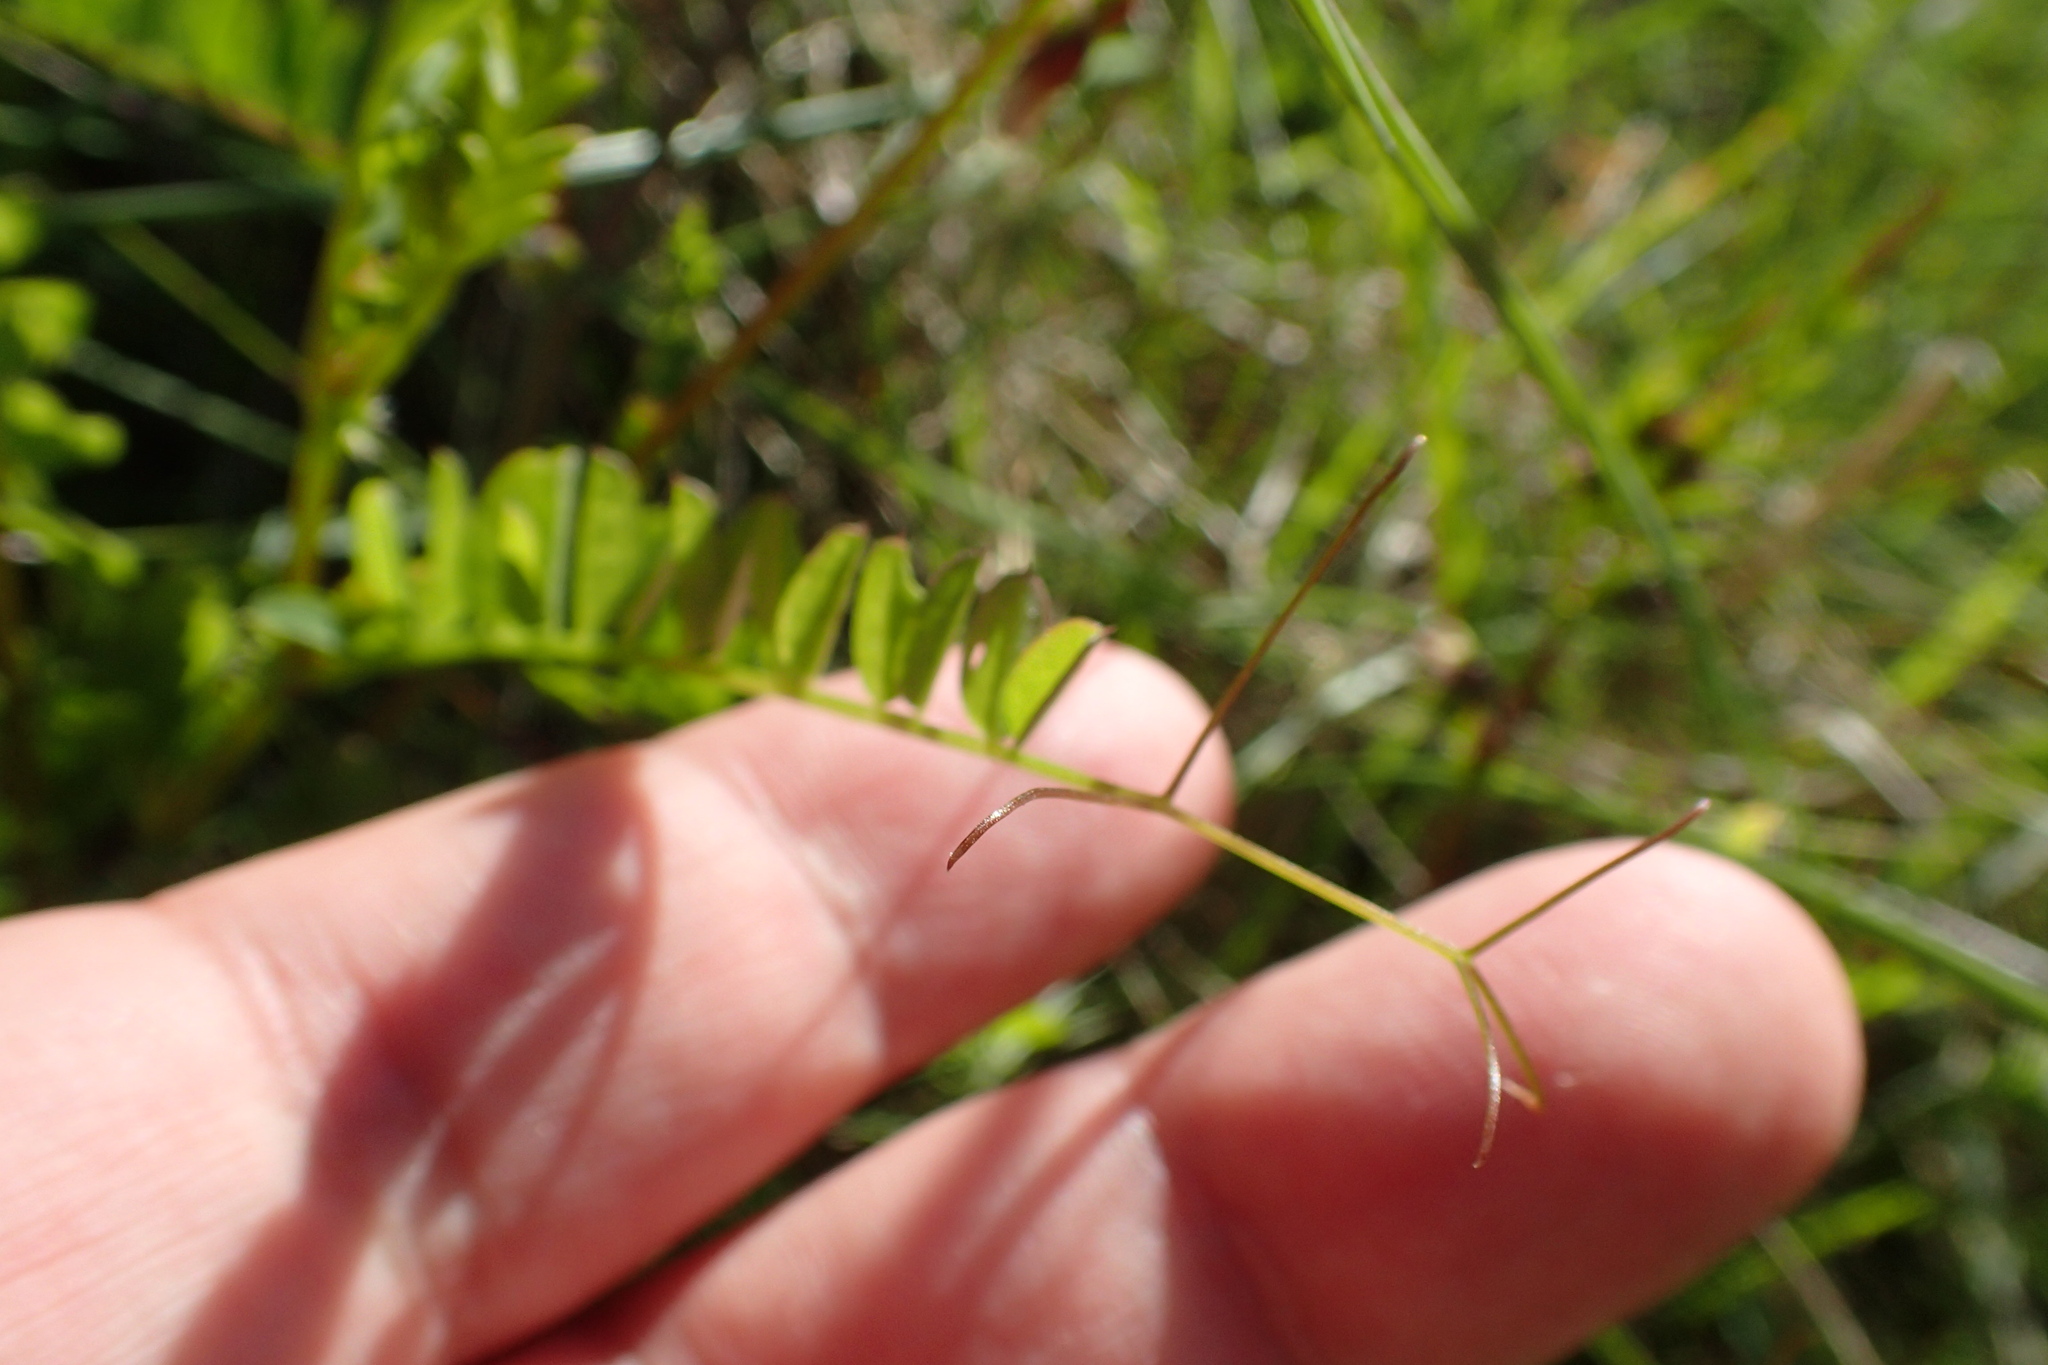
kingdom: Plantae
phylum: Tracheophyta
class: Magnoliopsida
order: Fabales
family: Fabaceae
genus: Vicia
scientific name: Vicia sylvatica
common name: Wood vetch
